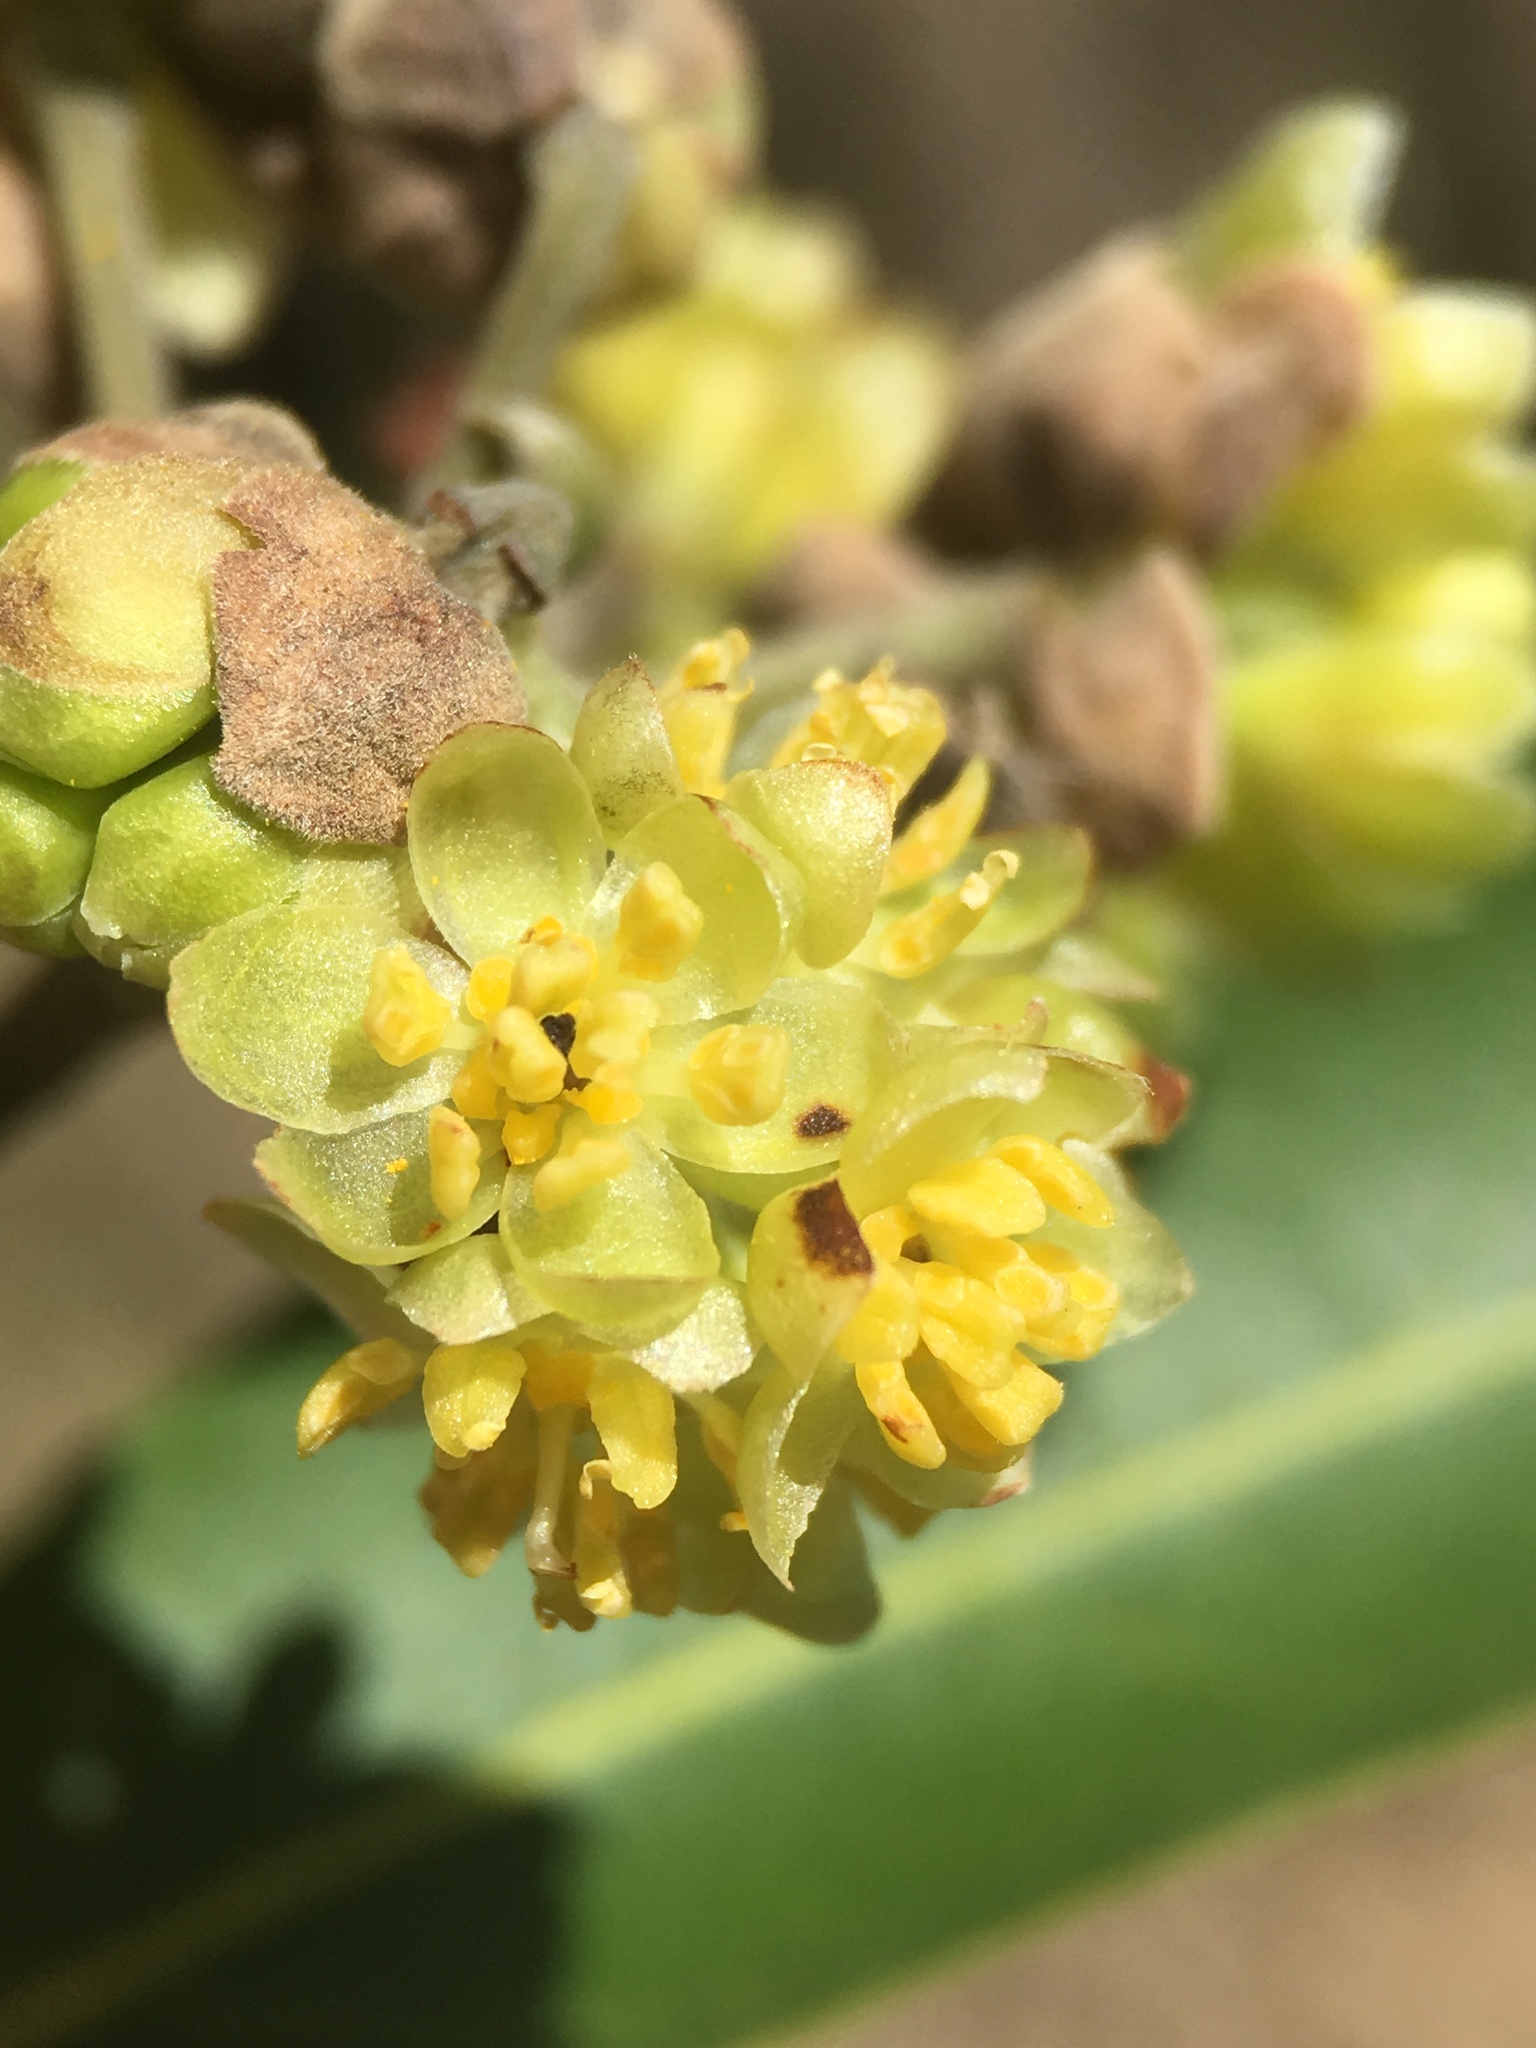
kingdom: Plantae
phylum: Tracheophyta
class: Magnoliopsida
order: Laurales
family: Lauraceae
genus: Umbellularia
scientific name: Umbellularia californica
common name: California bay
